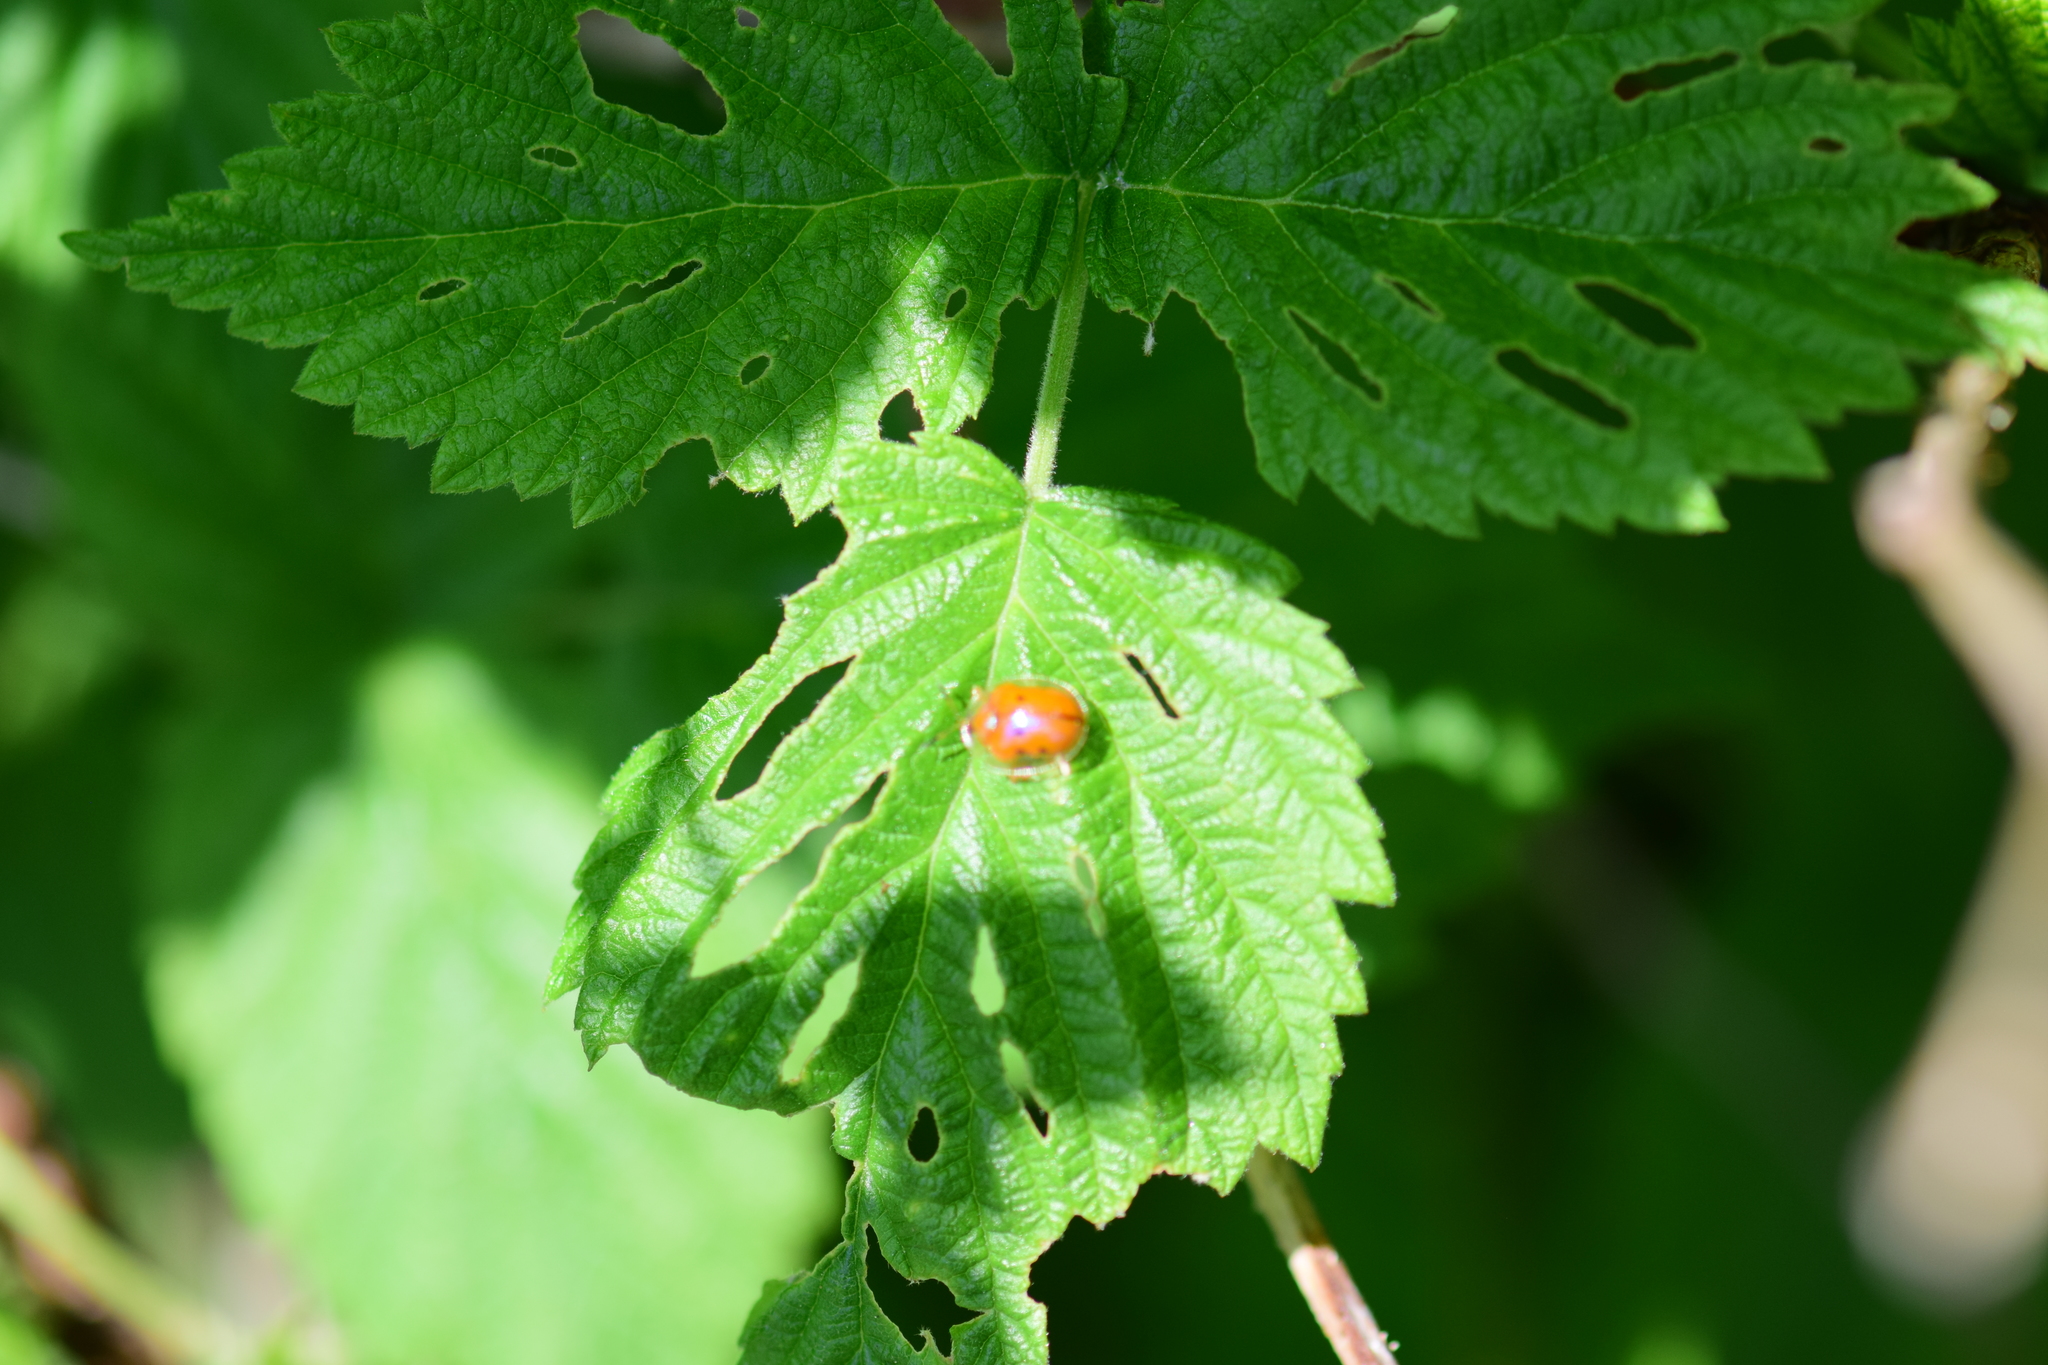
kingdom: Animalia
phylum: Arthropoda
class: Insecta
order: Coleoptera
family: Chrysomelidae
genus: Charidotella
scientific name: Charidotella sexpunctata
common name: Golden tortoise beetle
